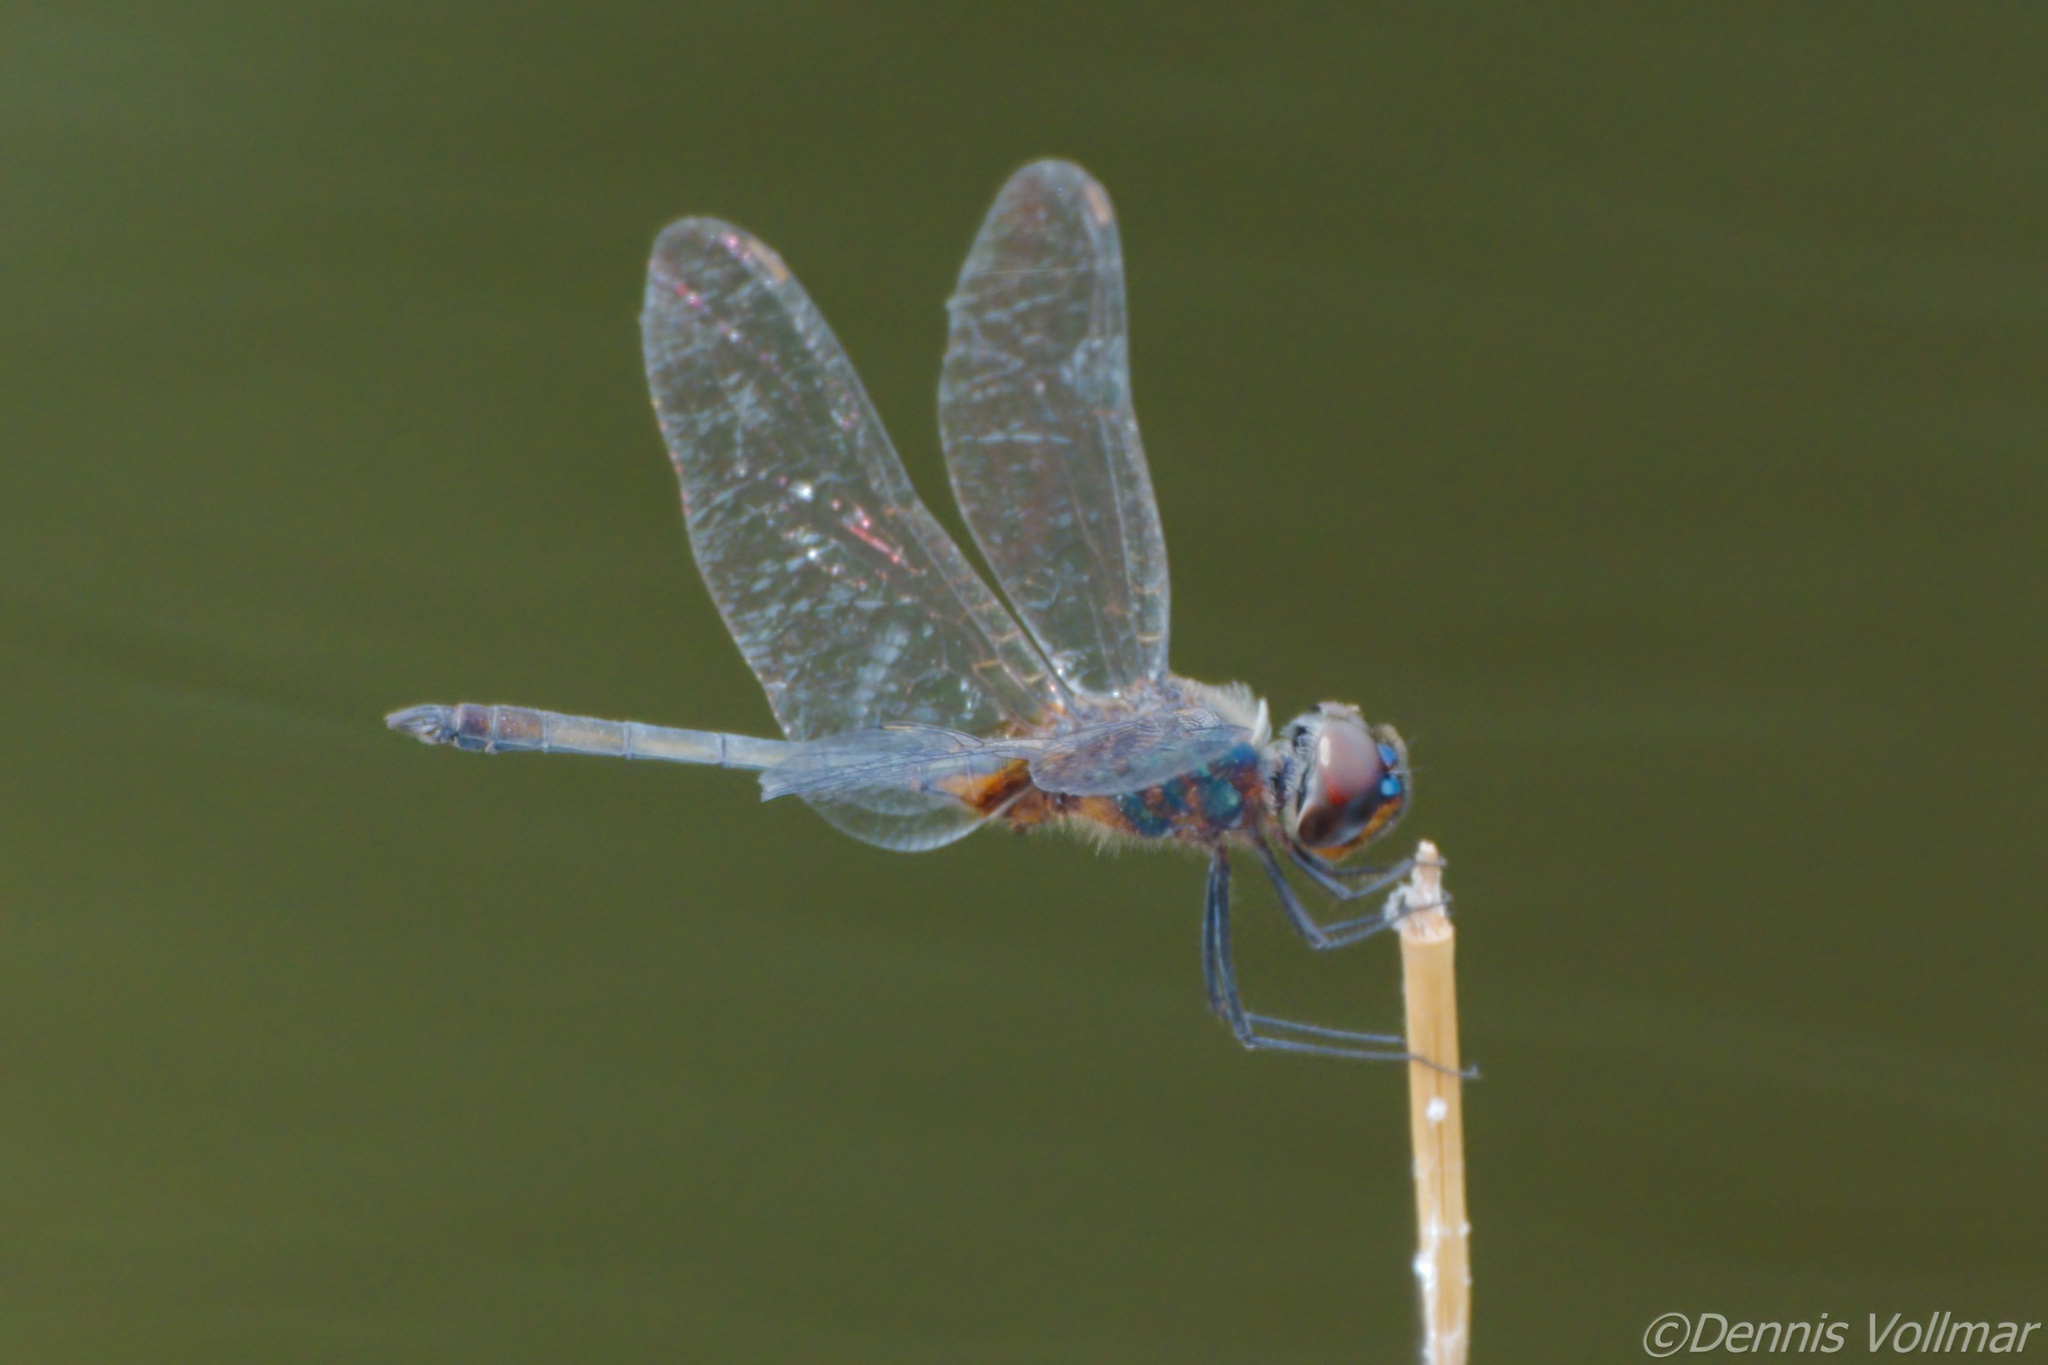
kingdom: Animalia
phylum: Arthropoda
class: Insecta
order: Odonata
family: Libellulidae
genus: Idiataphe
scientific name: Idiataphe cubensis
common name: Metallic pennant
